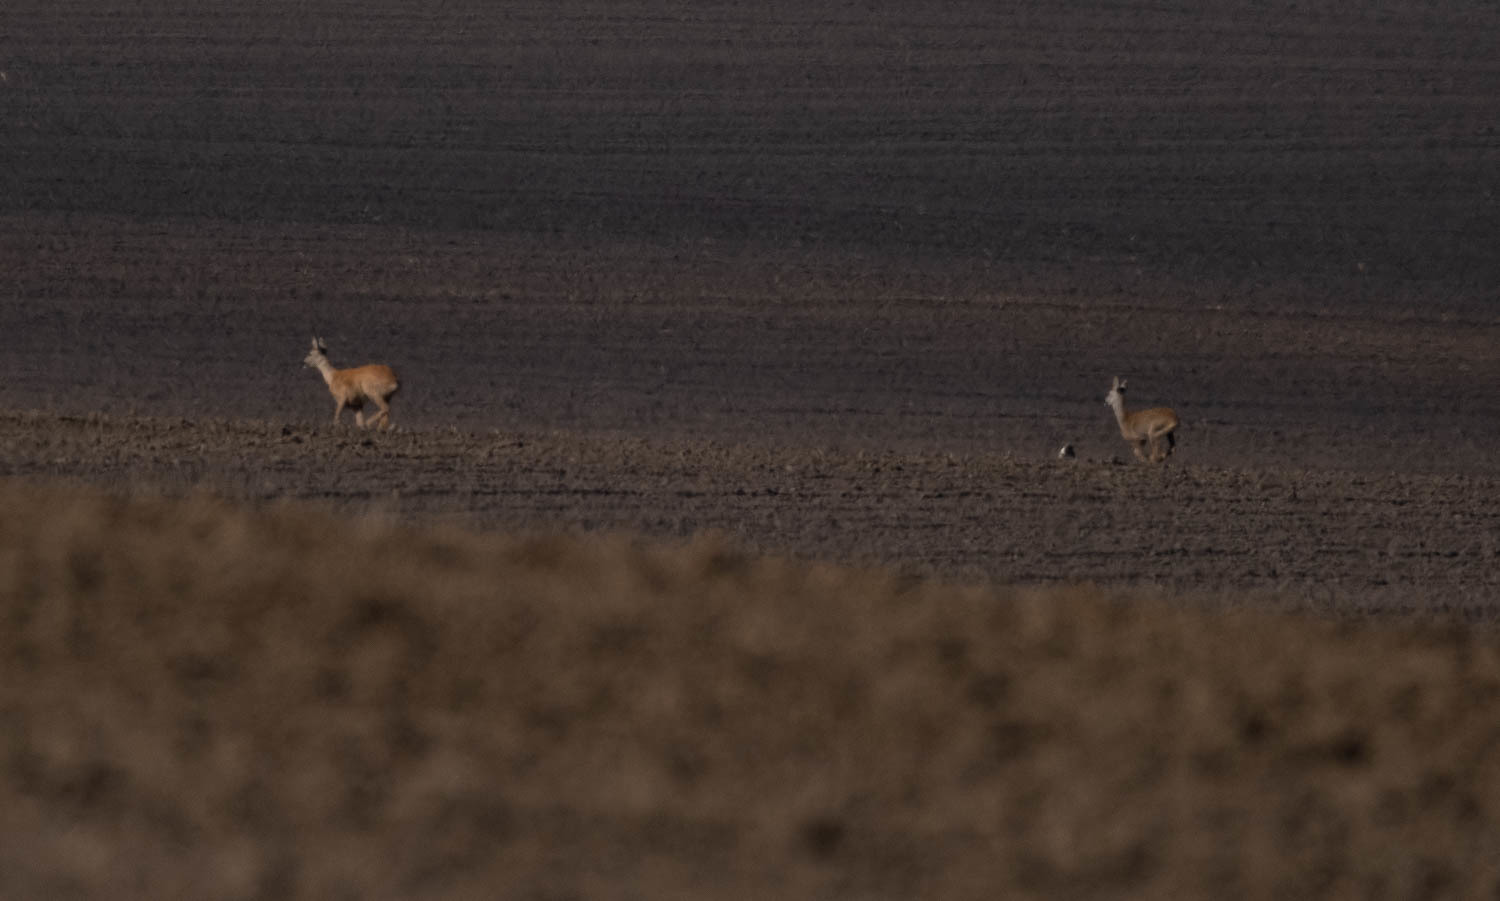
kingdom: Animalia
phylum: Chordata
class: Mammalia
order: Artiodactyla
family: Cervidae
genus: Capreolus
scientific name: Capreolus capreolus
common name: Western roe deer
